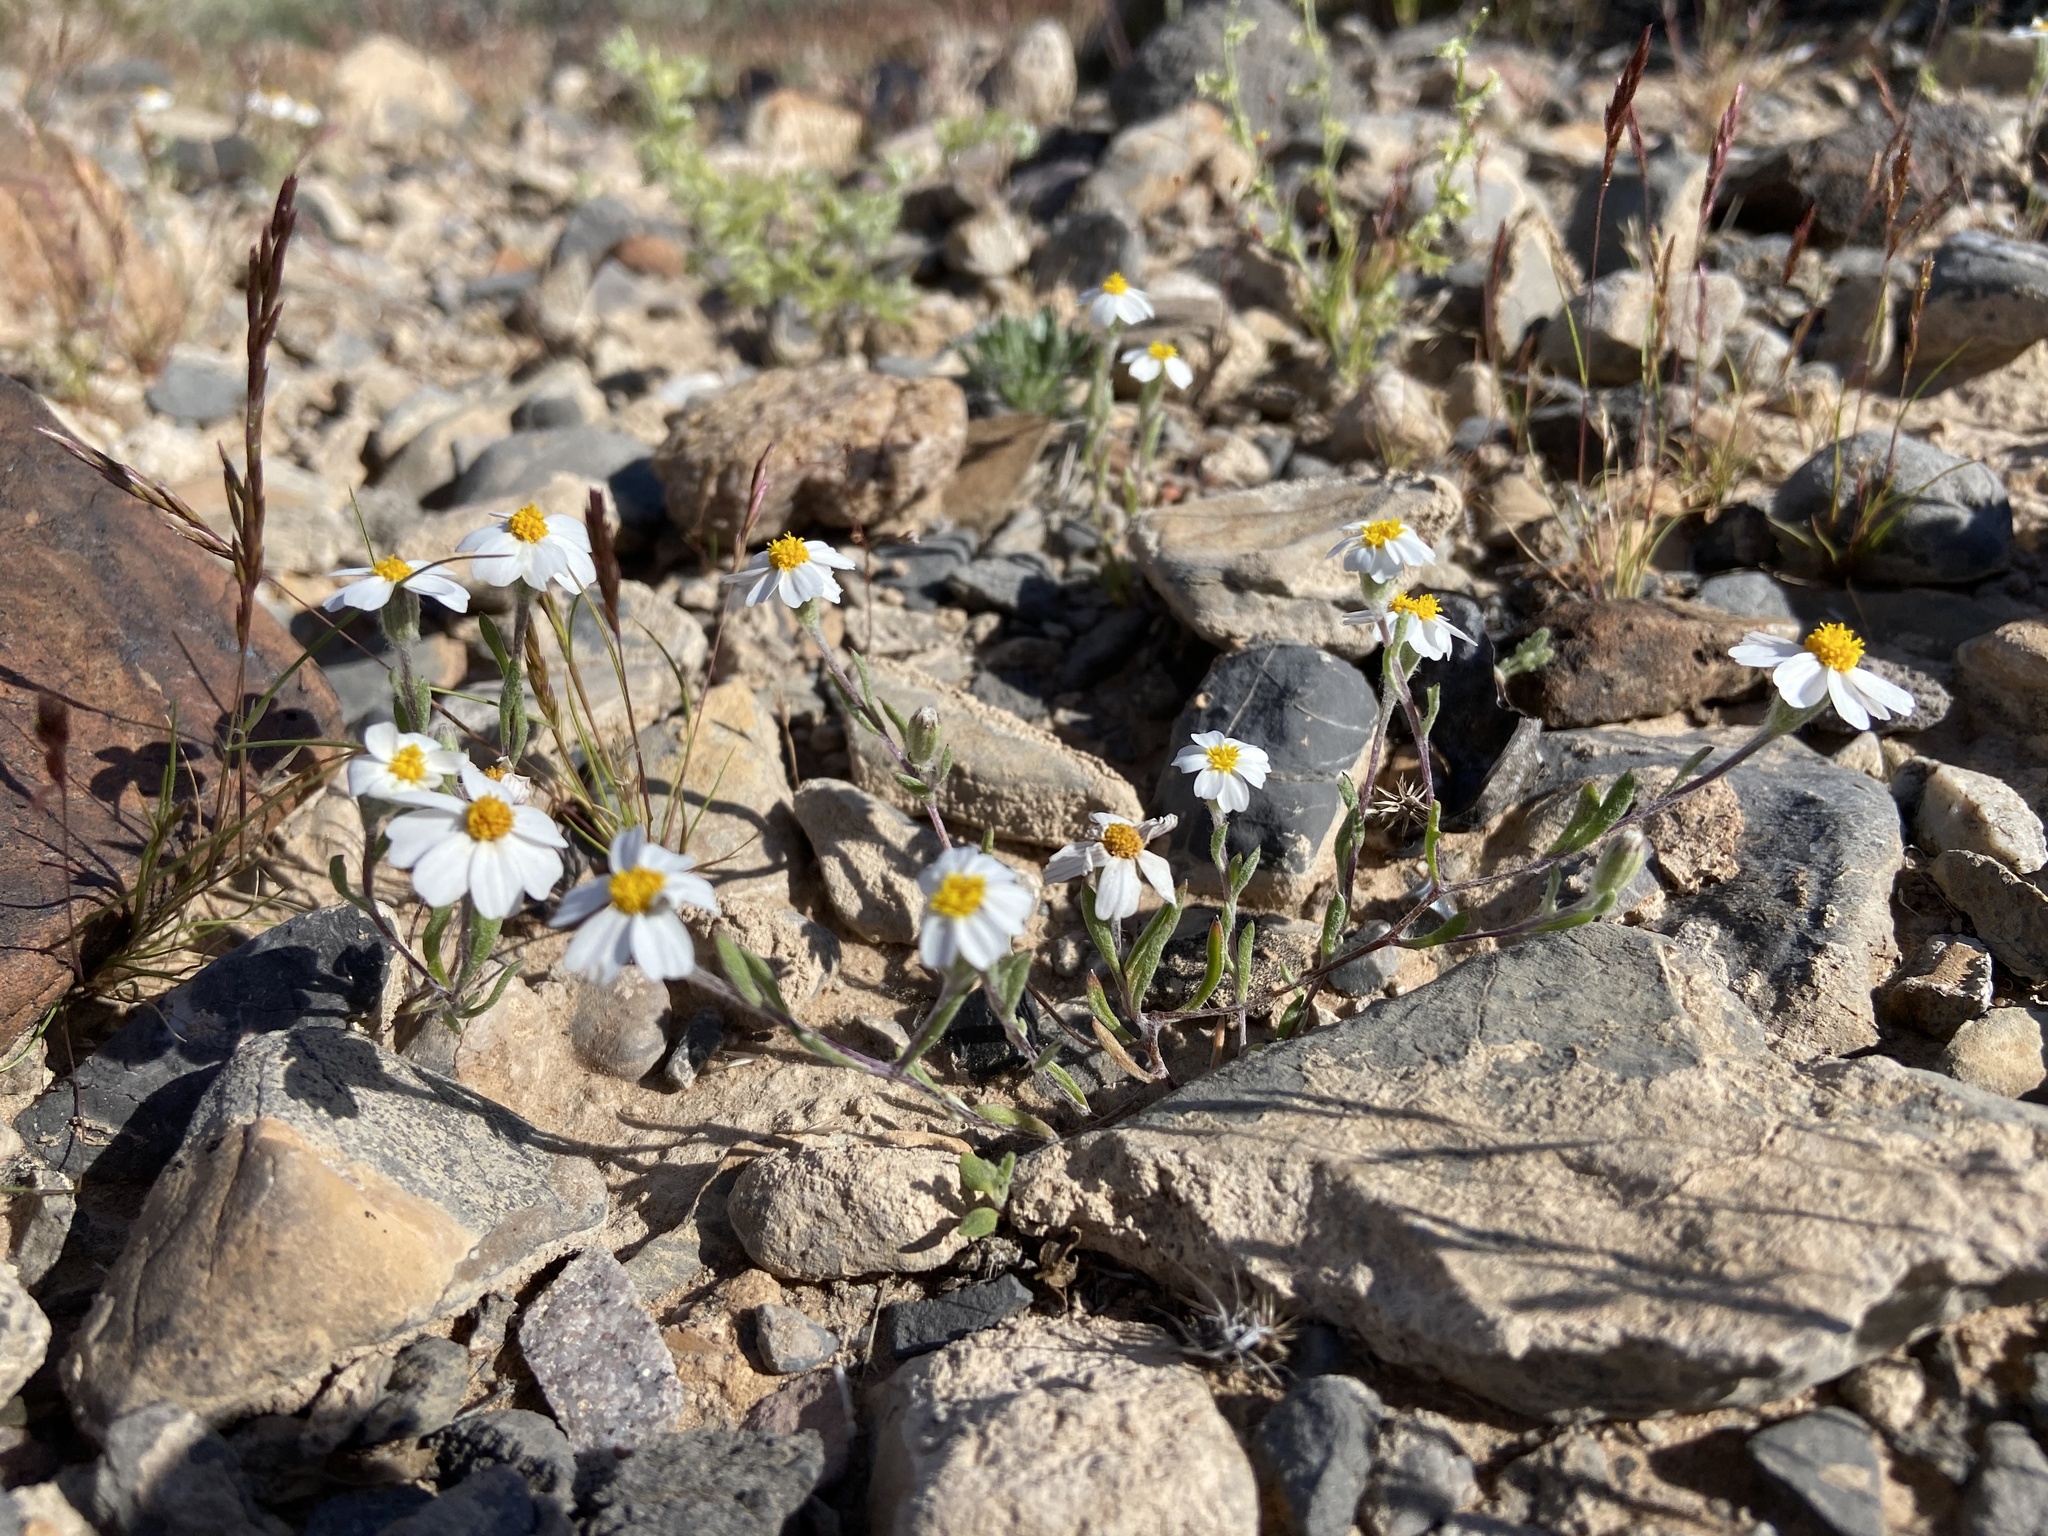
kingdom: Plantae
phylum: Tracheophyta
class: Magnoliopsida
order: Asterales
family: Asteraceae
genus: Eriophyllum
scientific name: Eriophyllum lanosum
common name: White easter-bonnets
